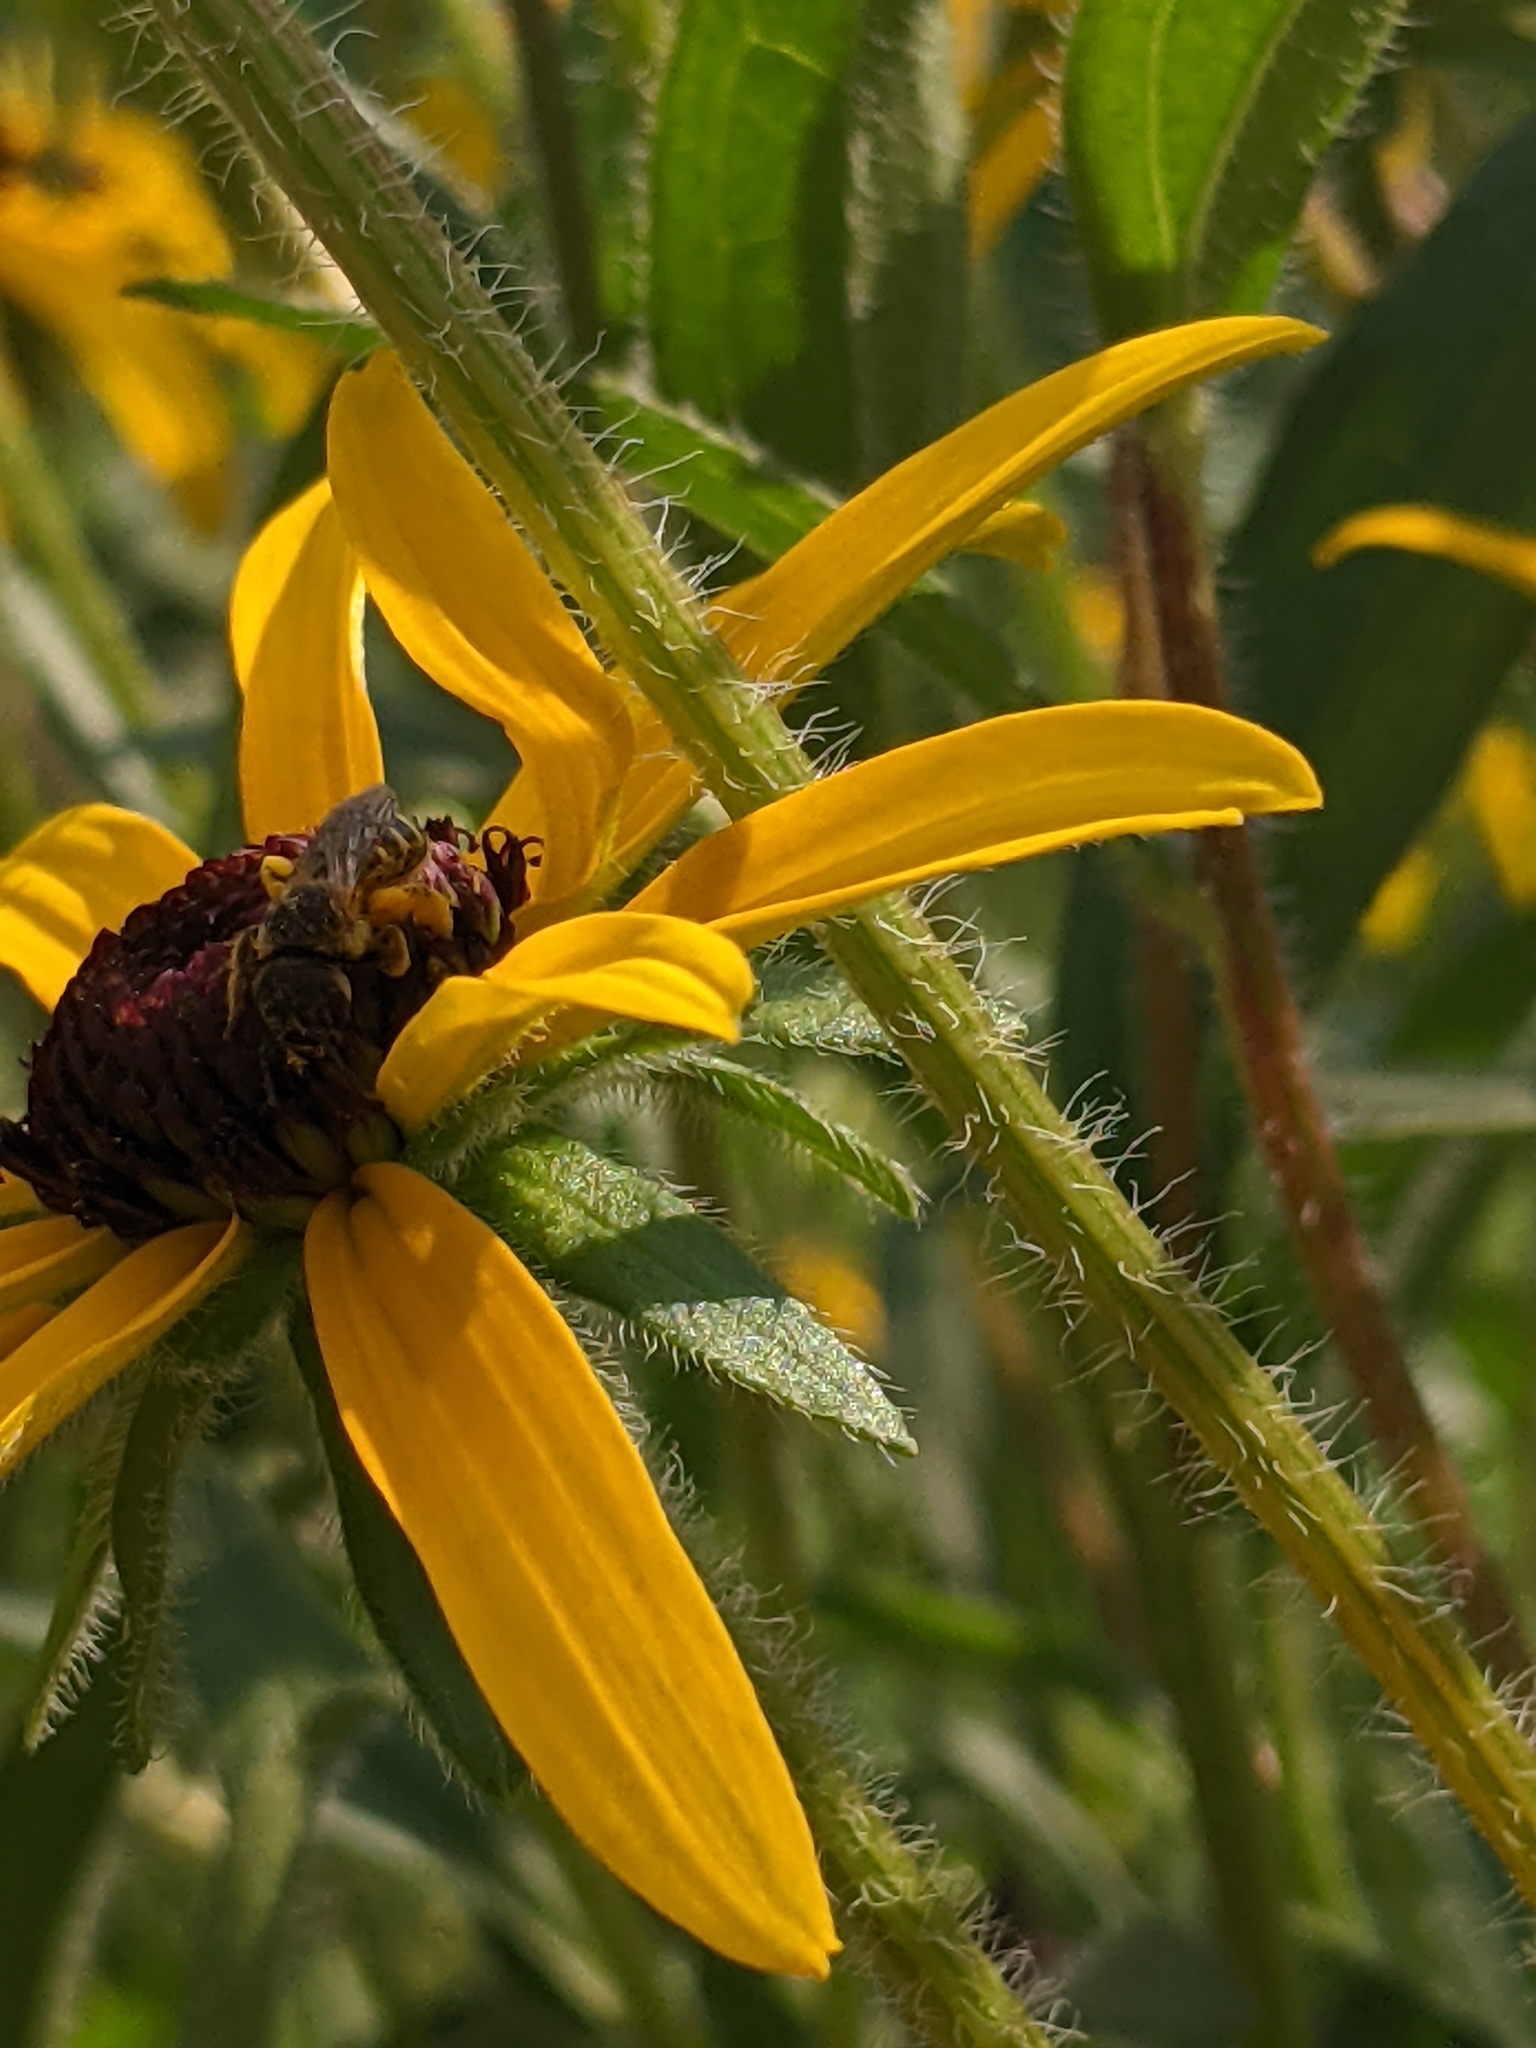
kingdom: Animalia
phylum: Arthropoda
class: Insecta
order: Hymenoptera
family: Halictidae
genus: Halictus
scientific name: Halictus ligatus
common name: Ligated furrow bee
